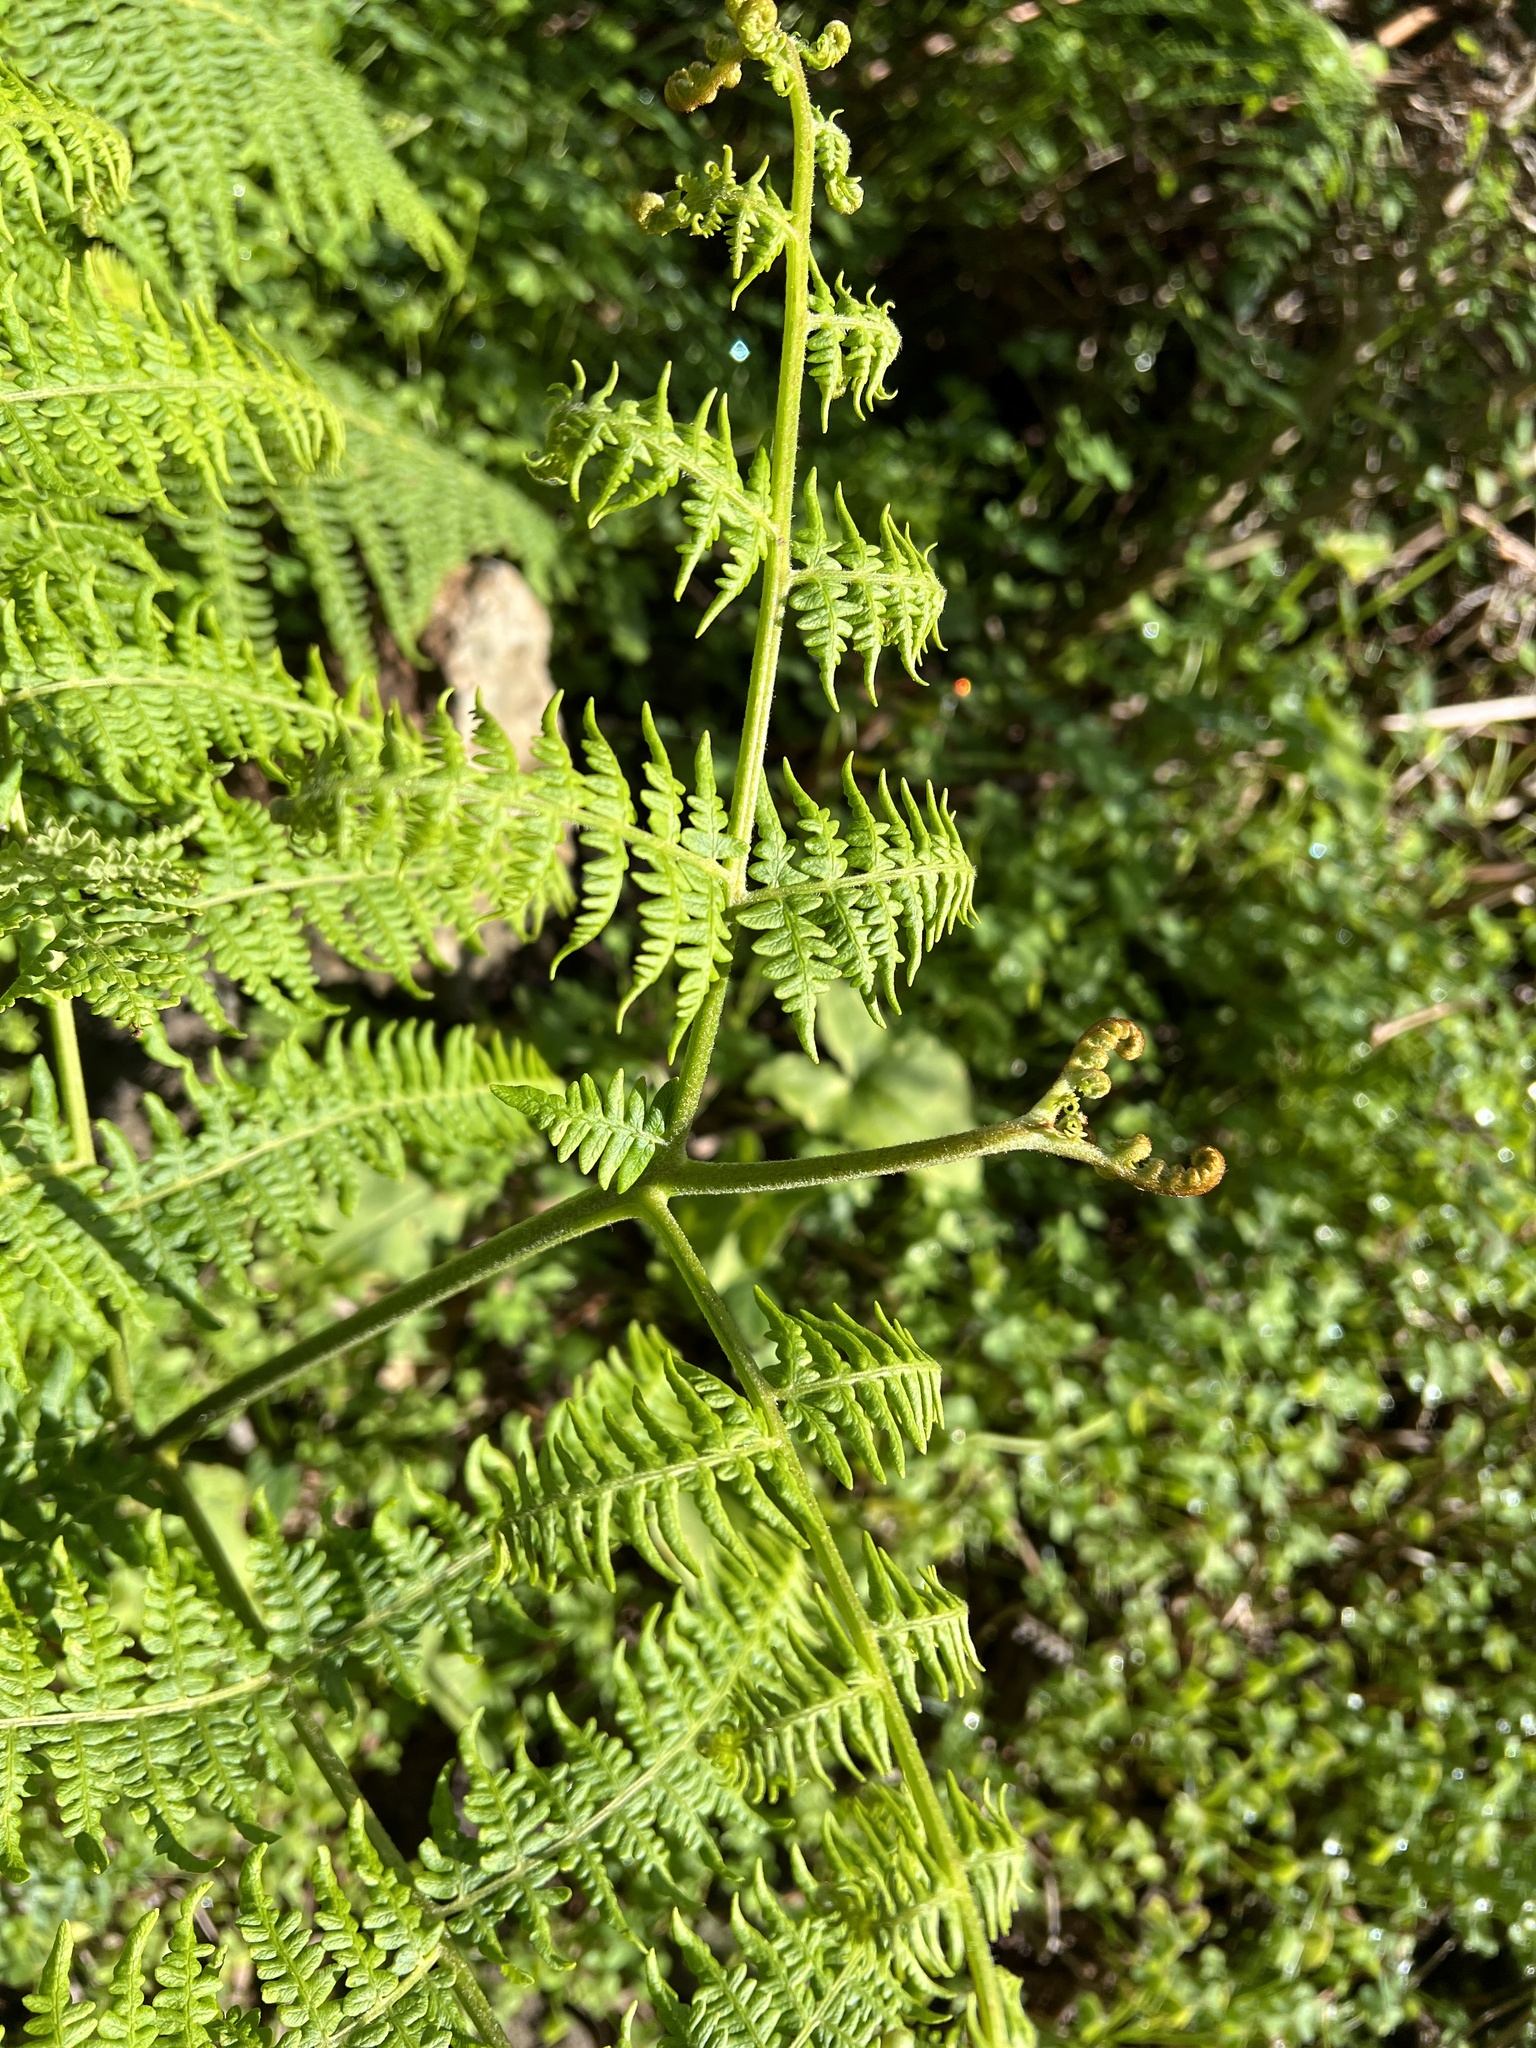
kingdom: Plantae
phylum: Tracheophyta
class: Polypodiopsida
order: Polypodiales
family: Dennstaedtiaceae
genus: Pteridium
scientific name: Pteridium aquilinum
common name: Bracken
